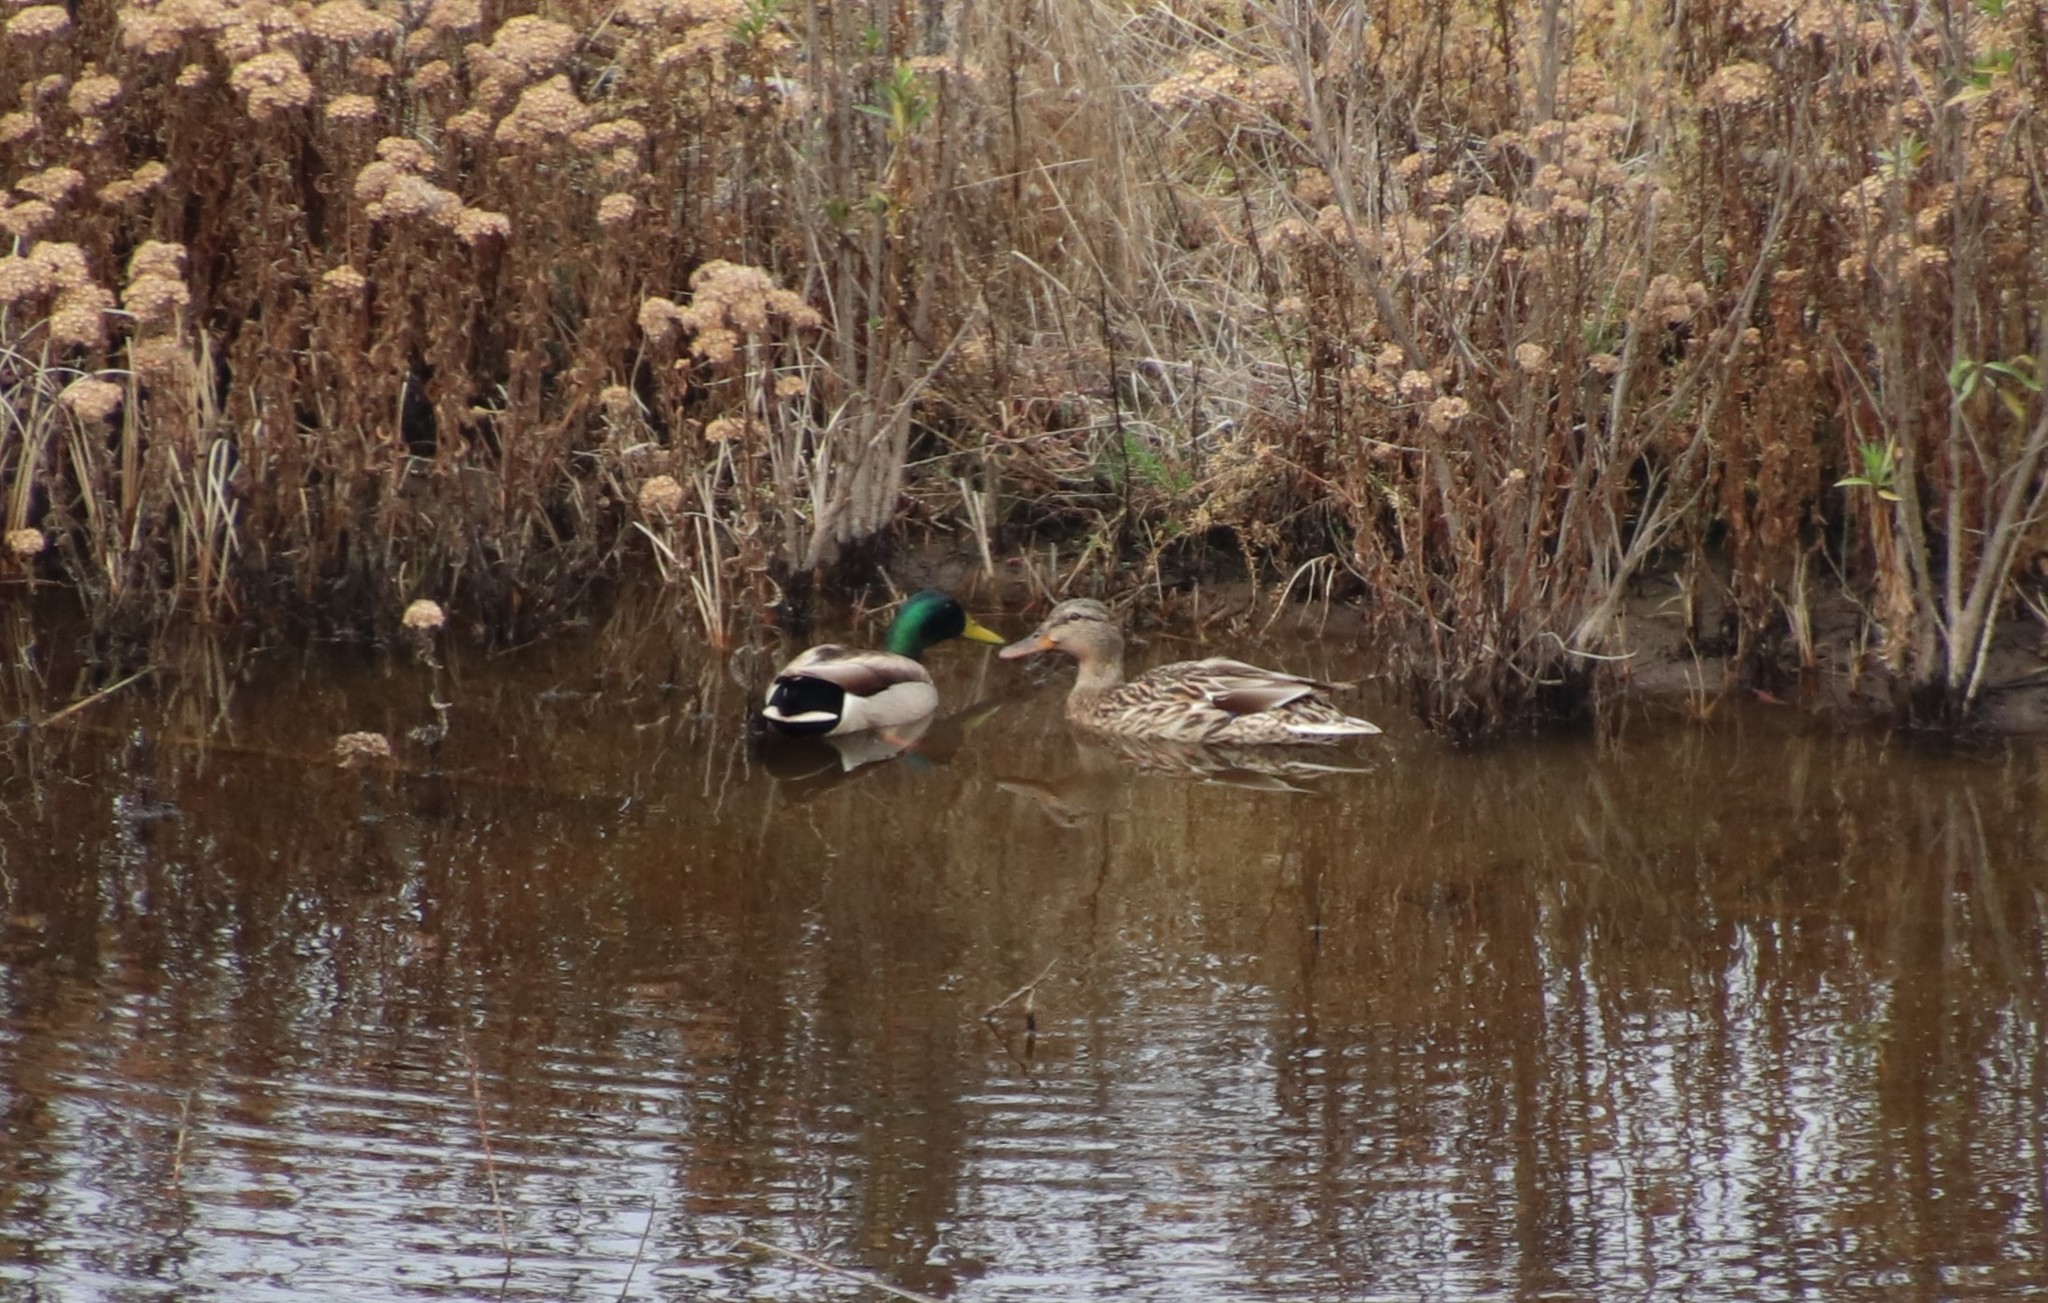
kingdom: Animalia
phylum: Chordata
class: Aves
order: Anseriformes
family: Anatidae
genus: Anas
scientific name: Anas platyrhynchos
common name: Mallard
